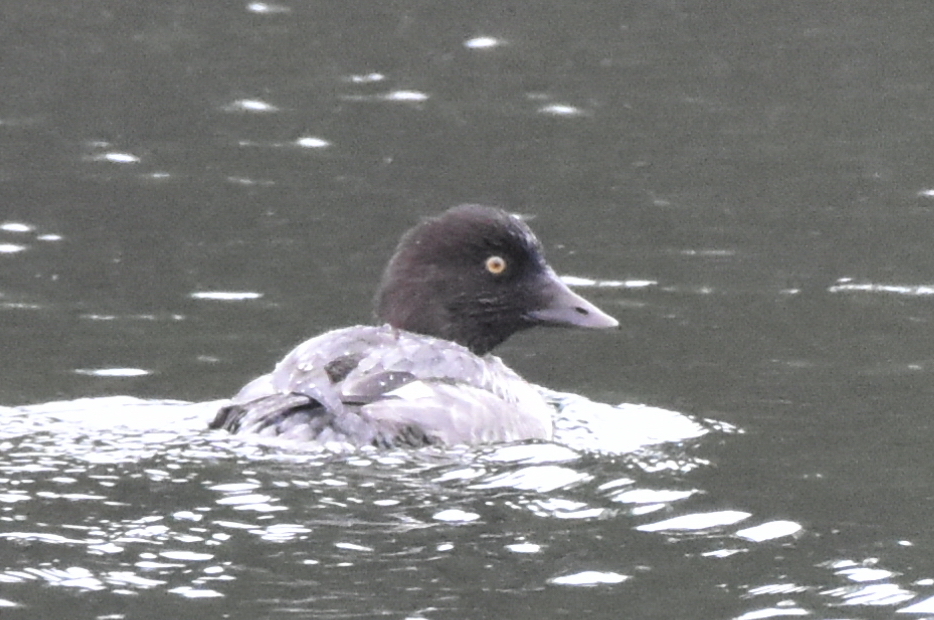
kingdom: Animalia
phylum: Chordata
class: Aves
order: Anseriformes
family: Anatidae
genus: Bucephala
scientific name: Bucephala clangula
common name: Common goldeneye
